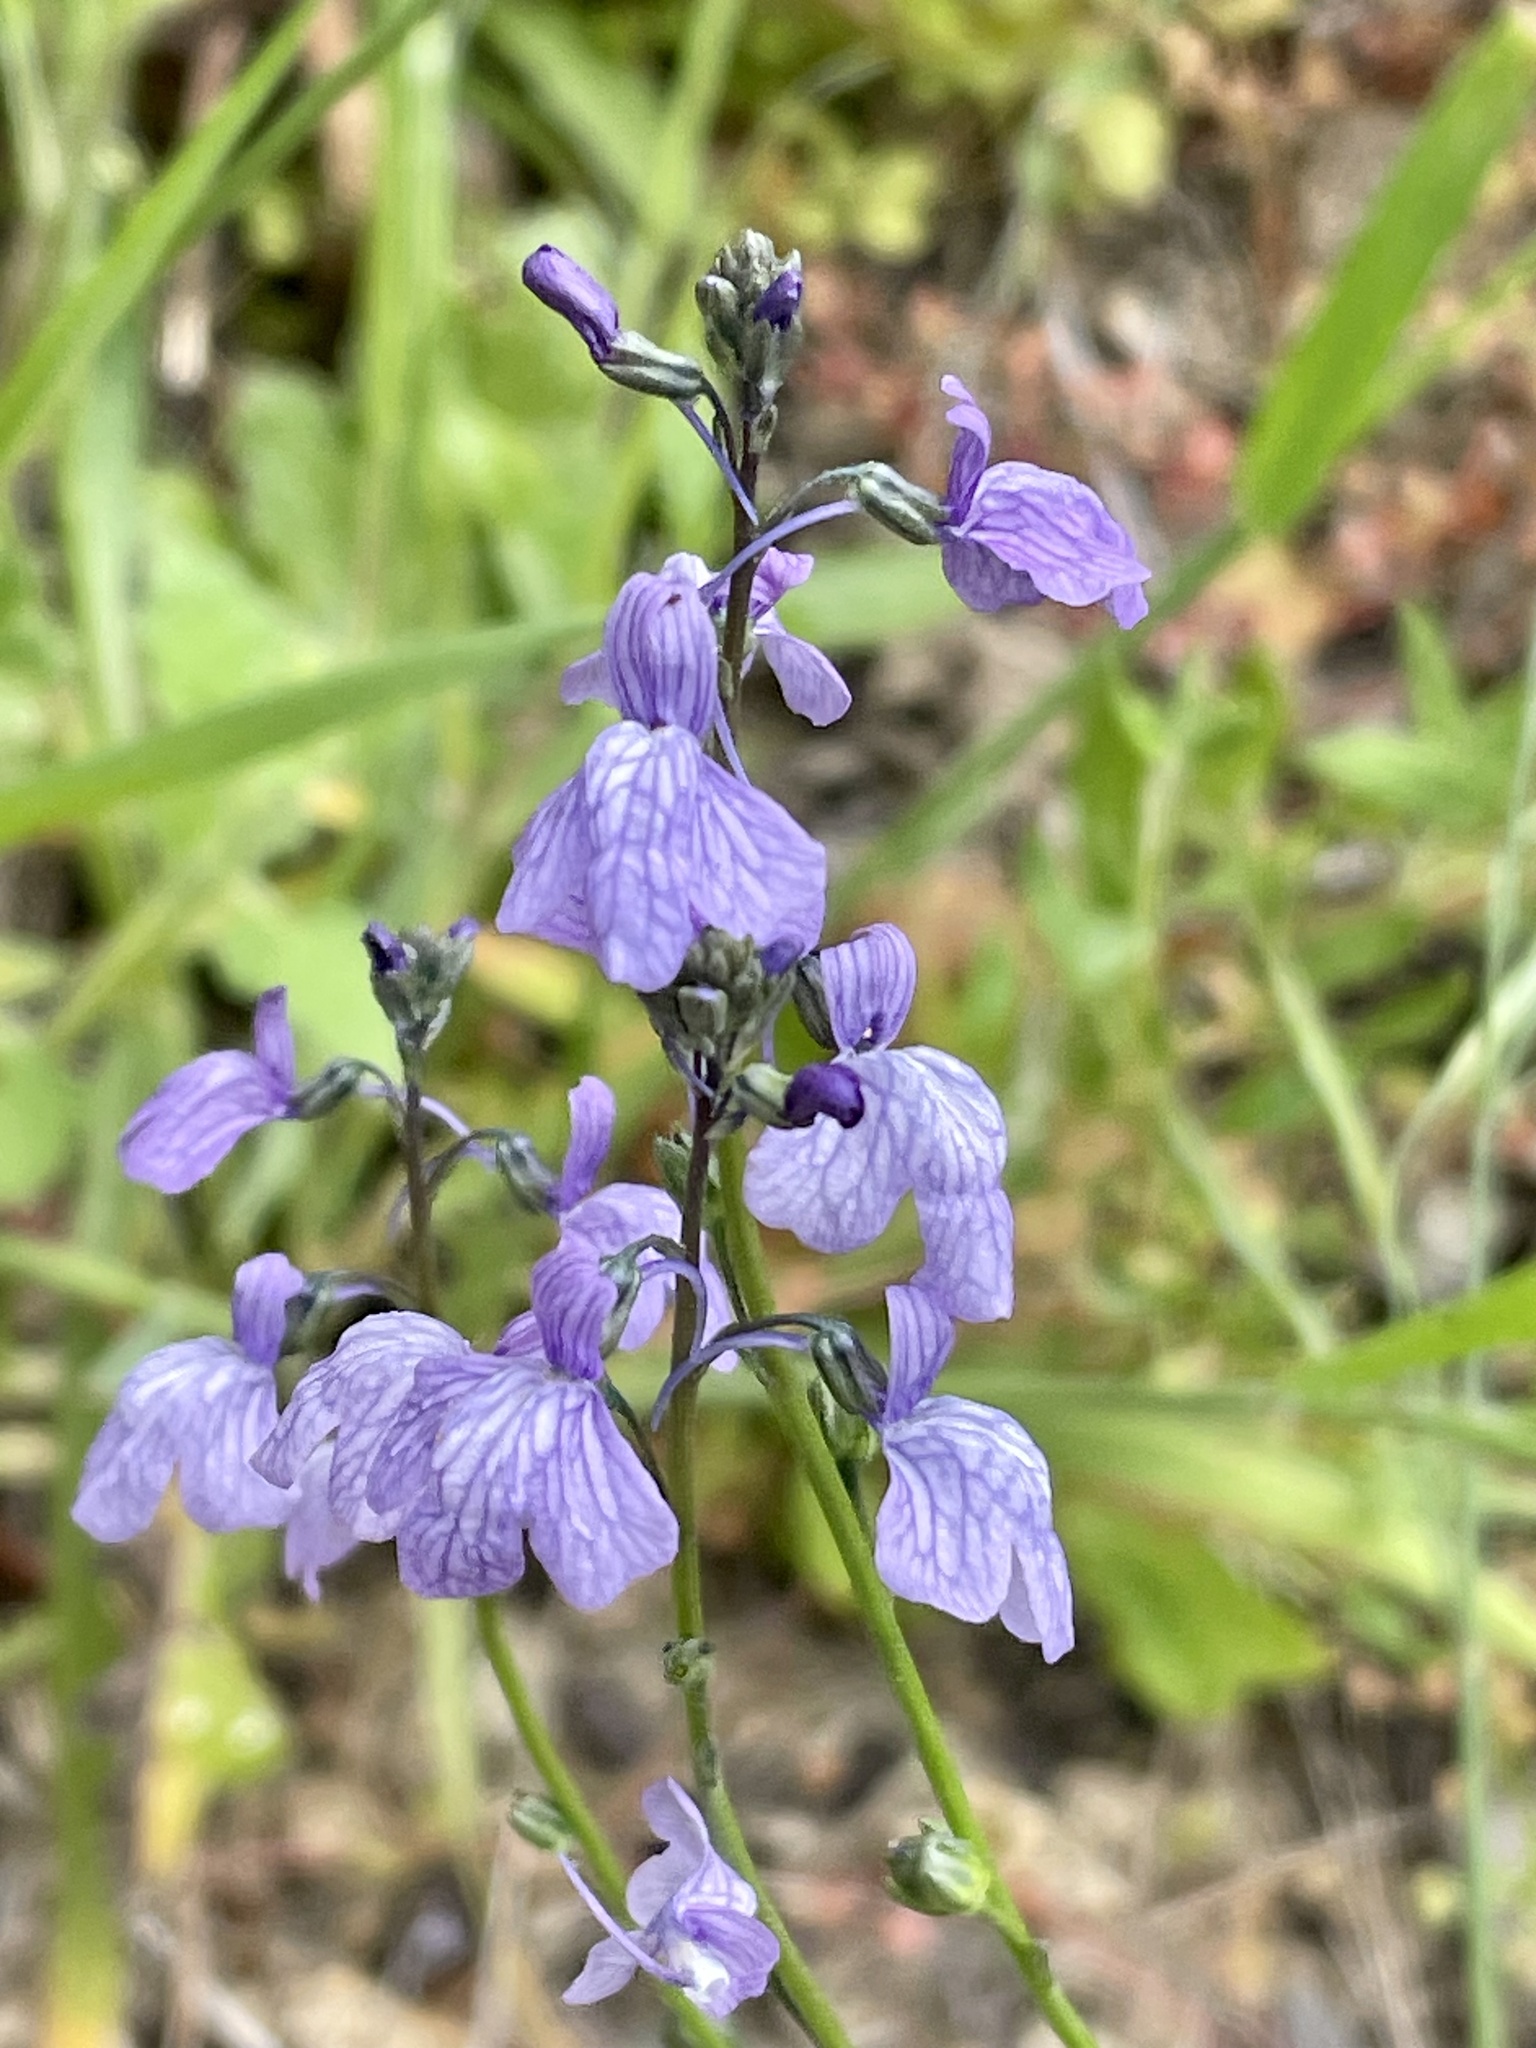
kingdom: Plantae
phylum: Tracheophyta
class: Magnoliopsida
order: Lamiales
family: Plantaginaceae
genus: Nuttallanthus
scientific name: Nuttallanthus texanus
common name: Texas toadflax
